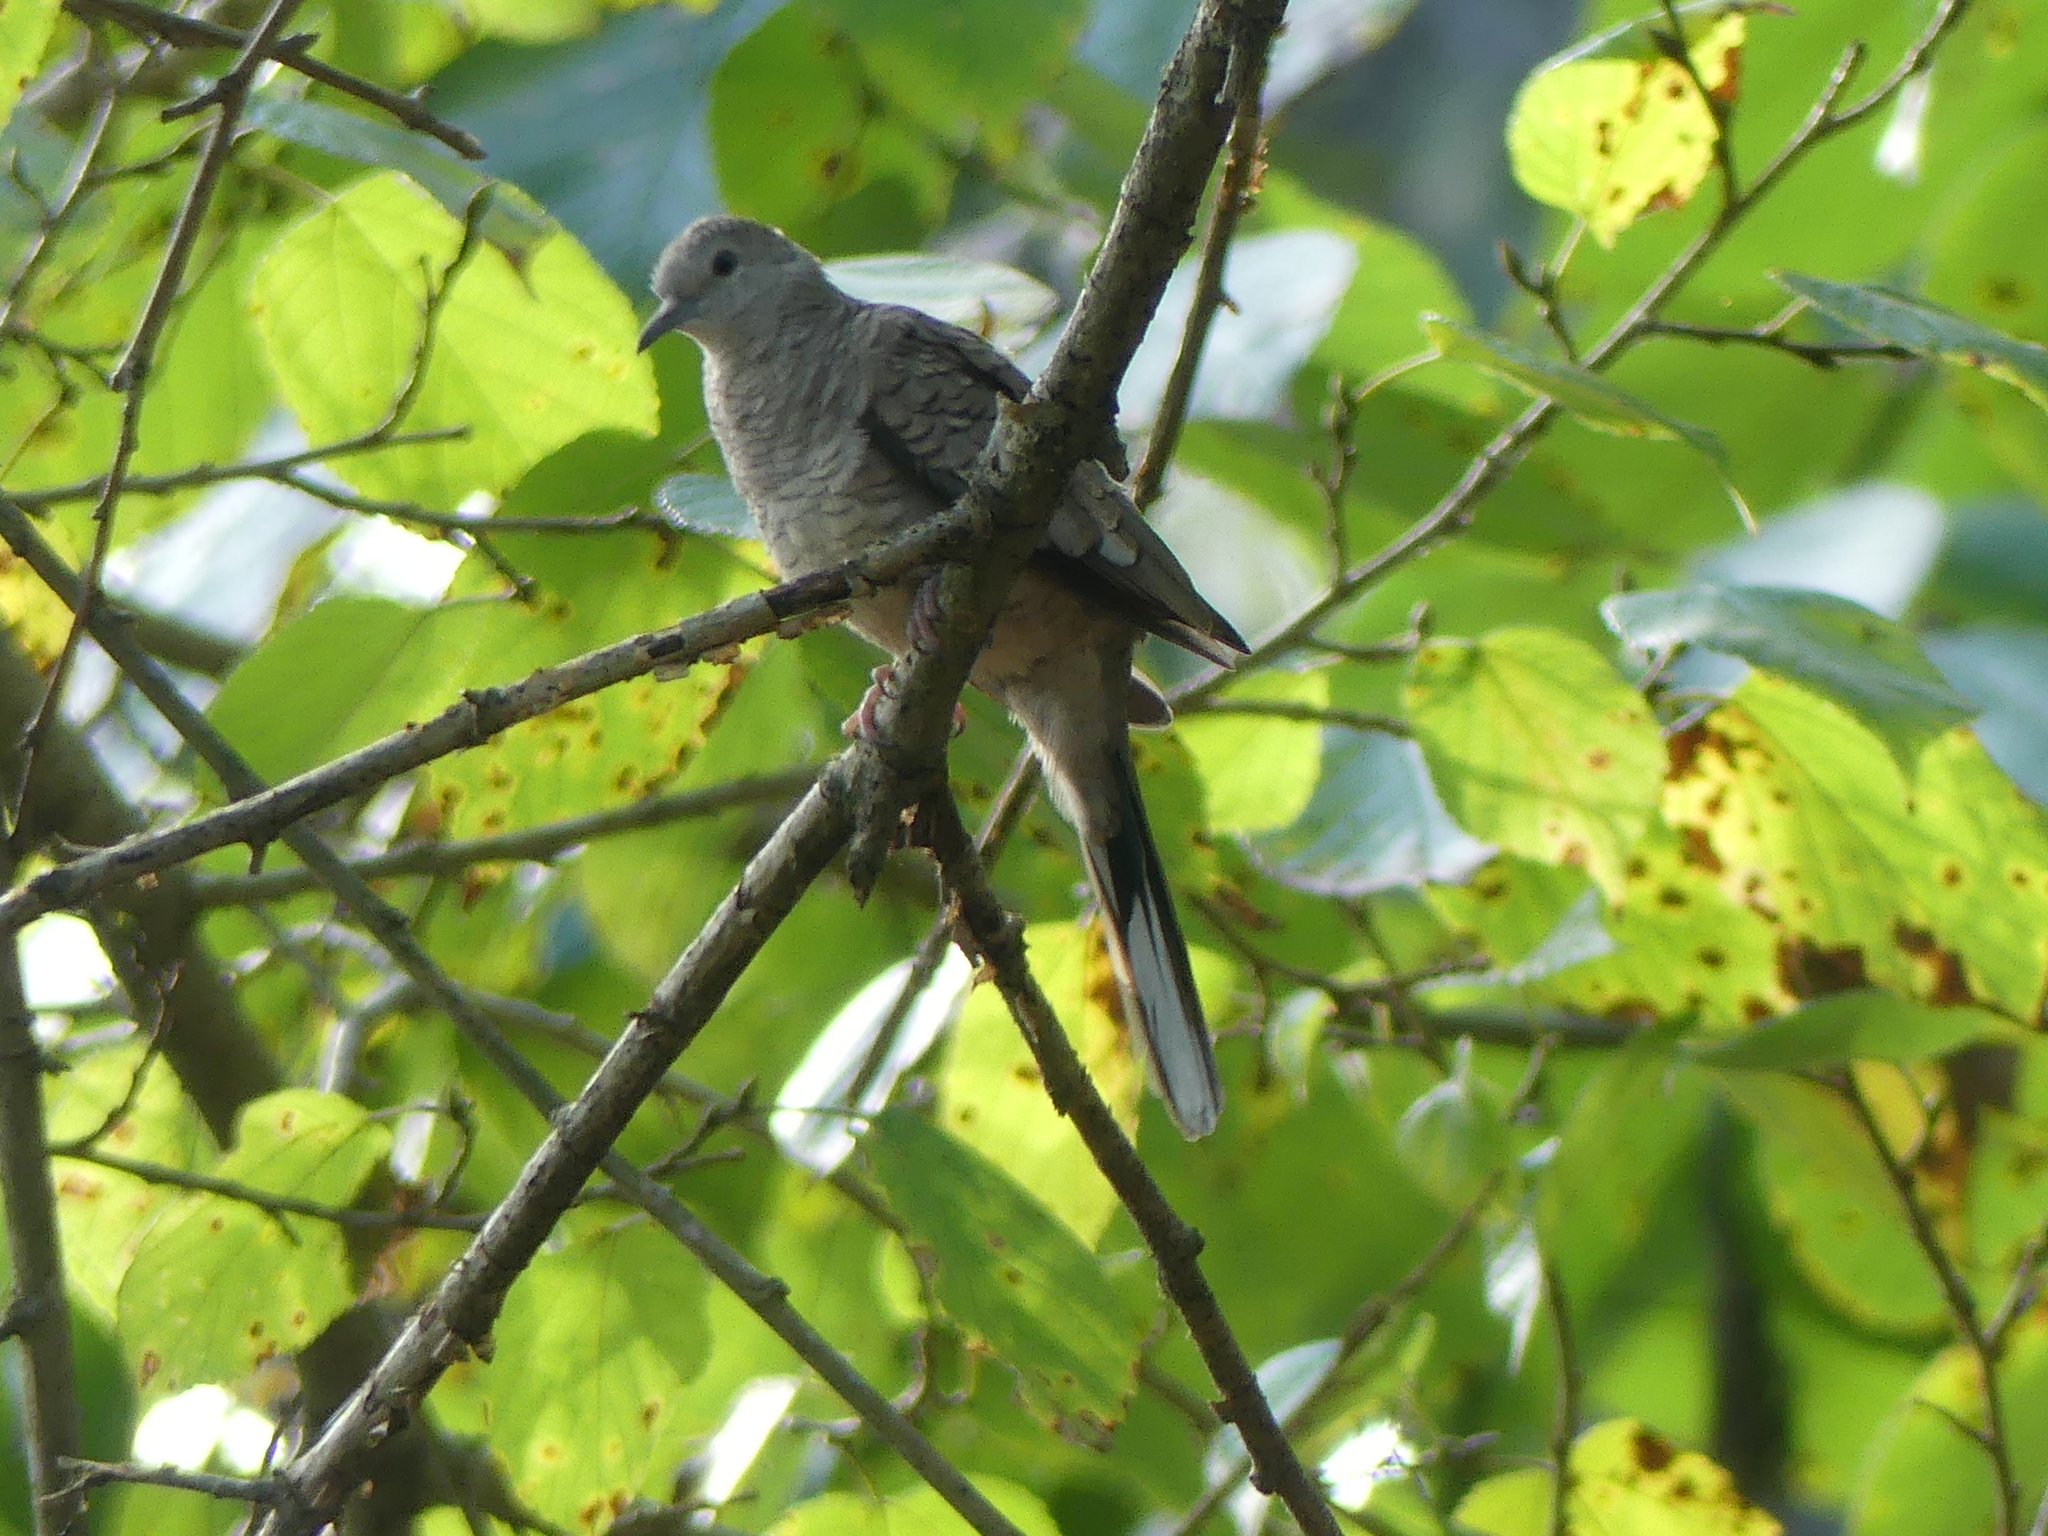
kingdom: Animalia
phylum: Chordata
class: Aves
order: Columbiformes
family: Columbidae
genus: Columbina
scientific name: Columbina inca
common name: Inca dove
